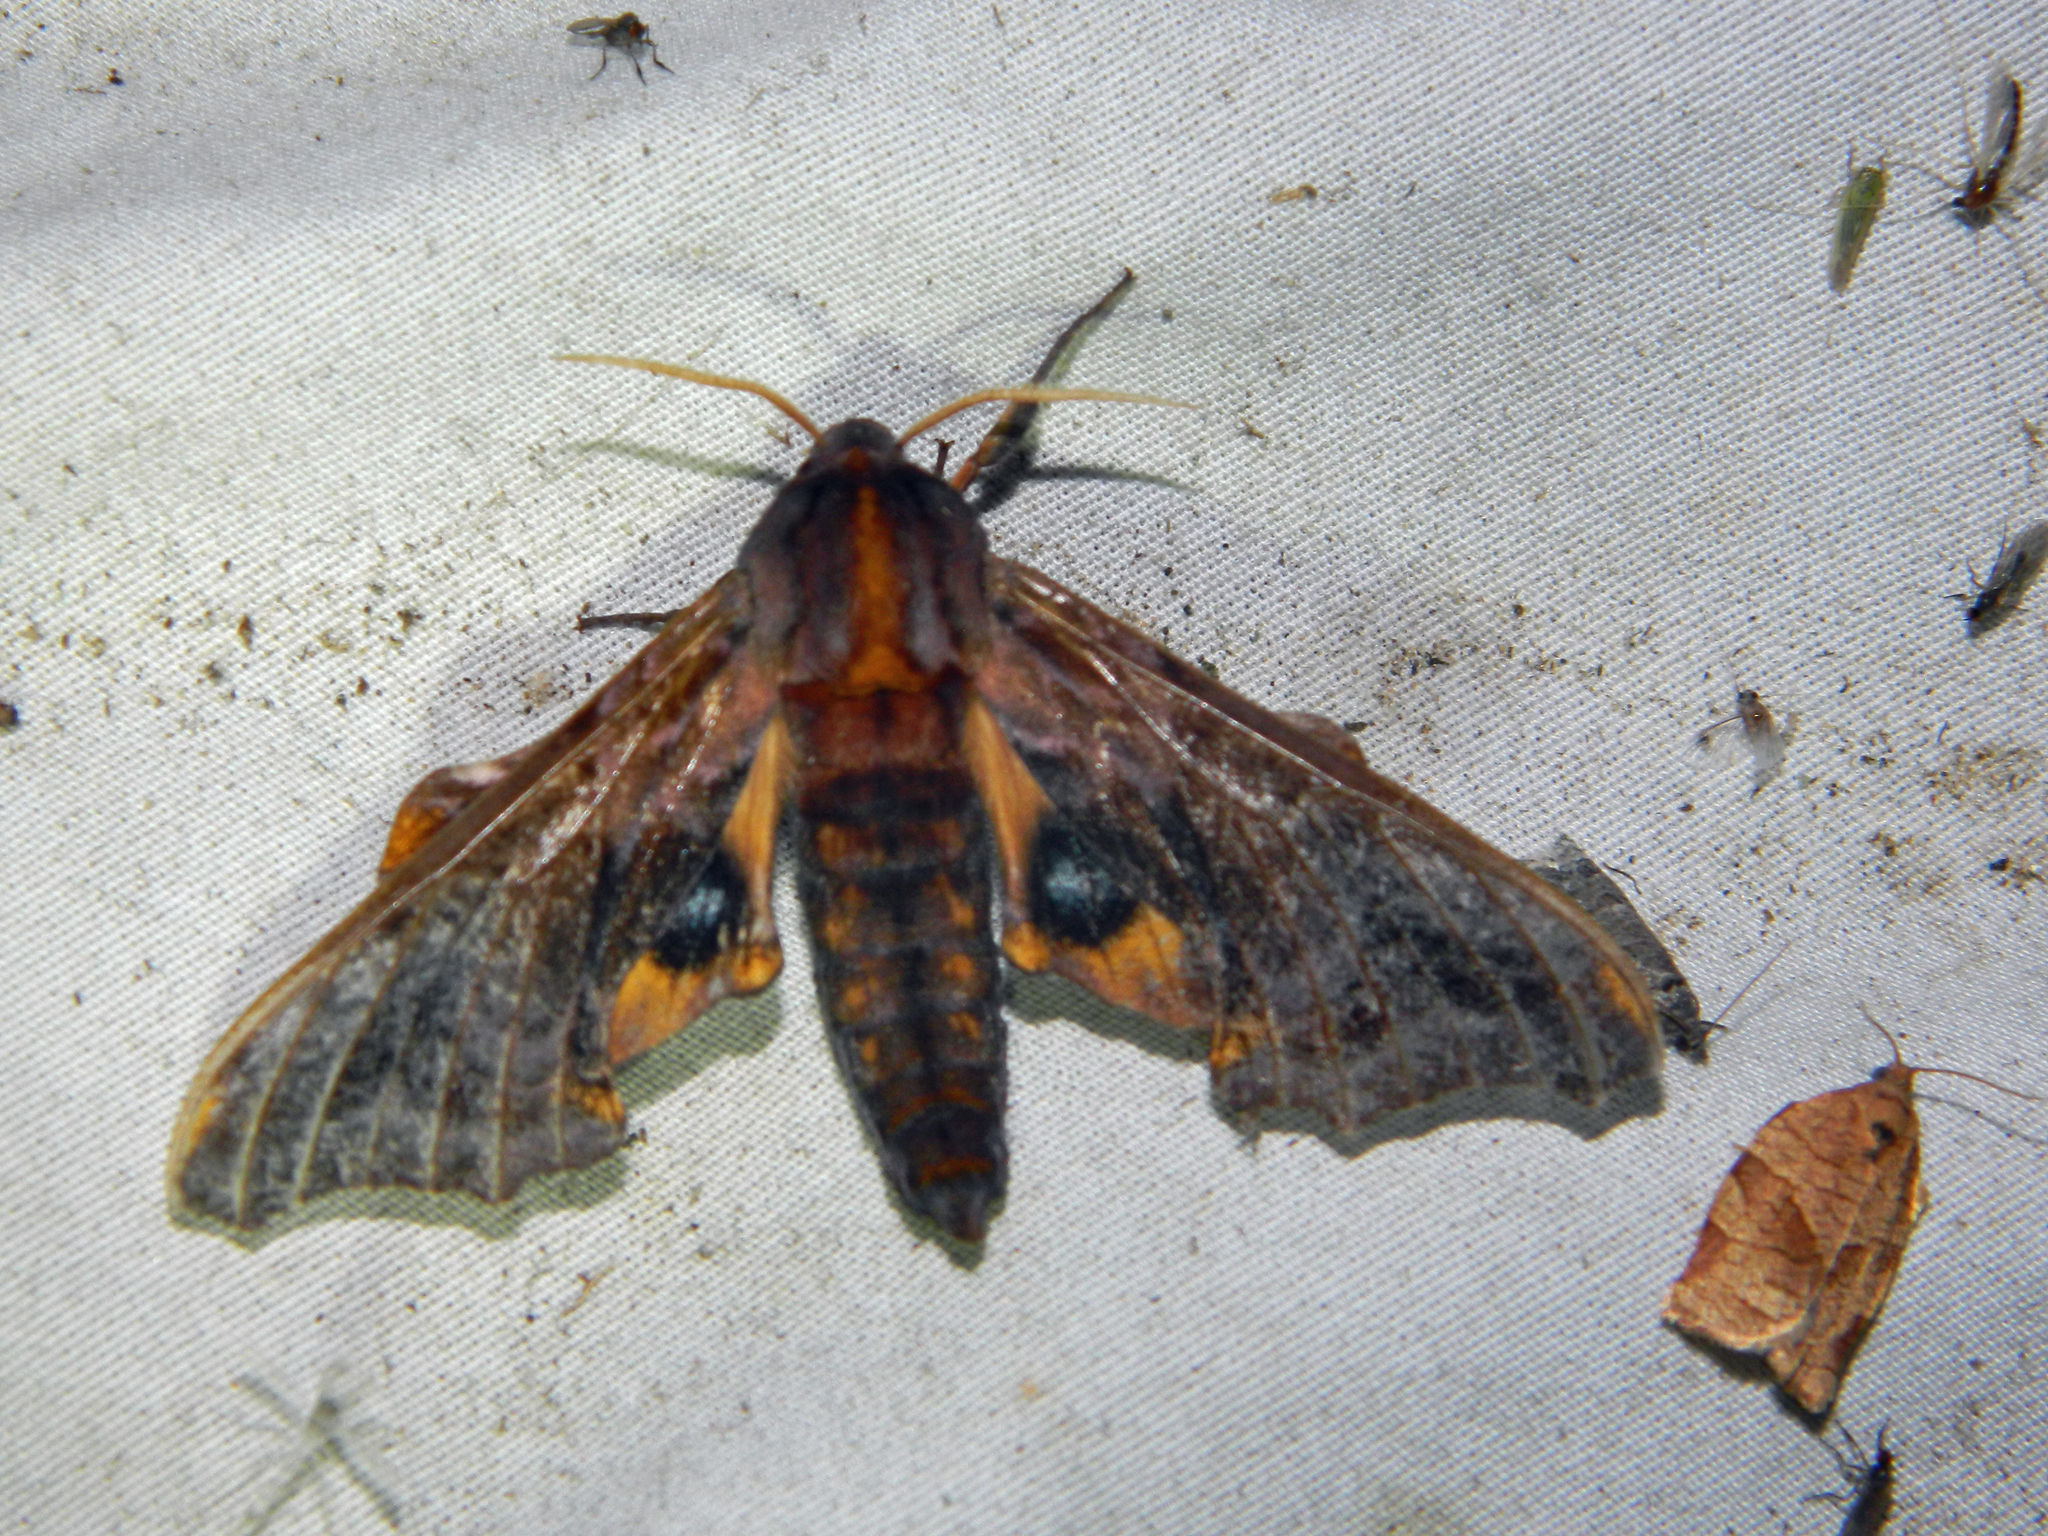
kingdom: Animalia
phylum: Arthropoda
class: Insecta
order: Lepidoptera
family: Sphingidae
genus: Paonias
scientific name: Paonias myops
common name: Small-eyed sphinx
